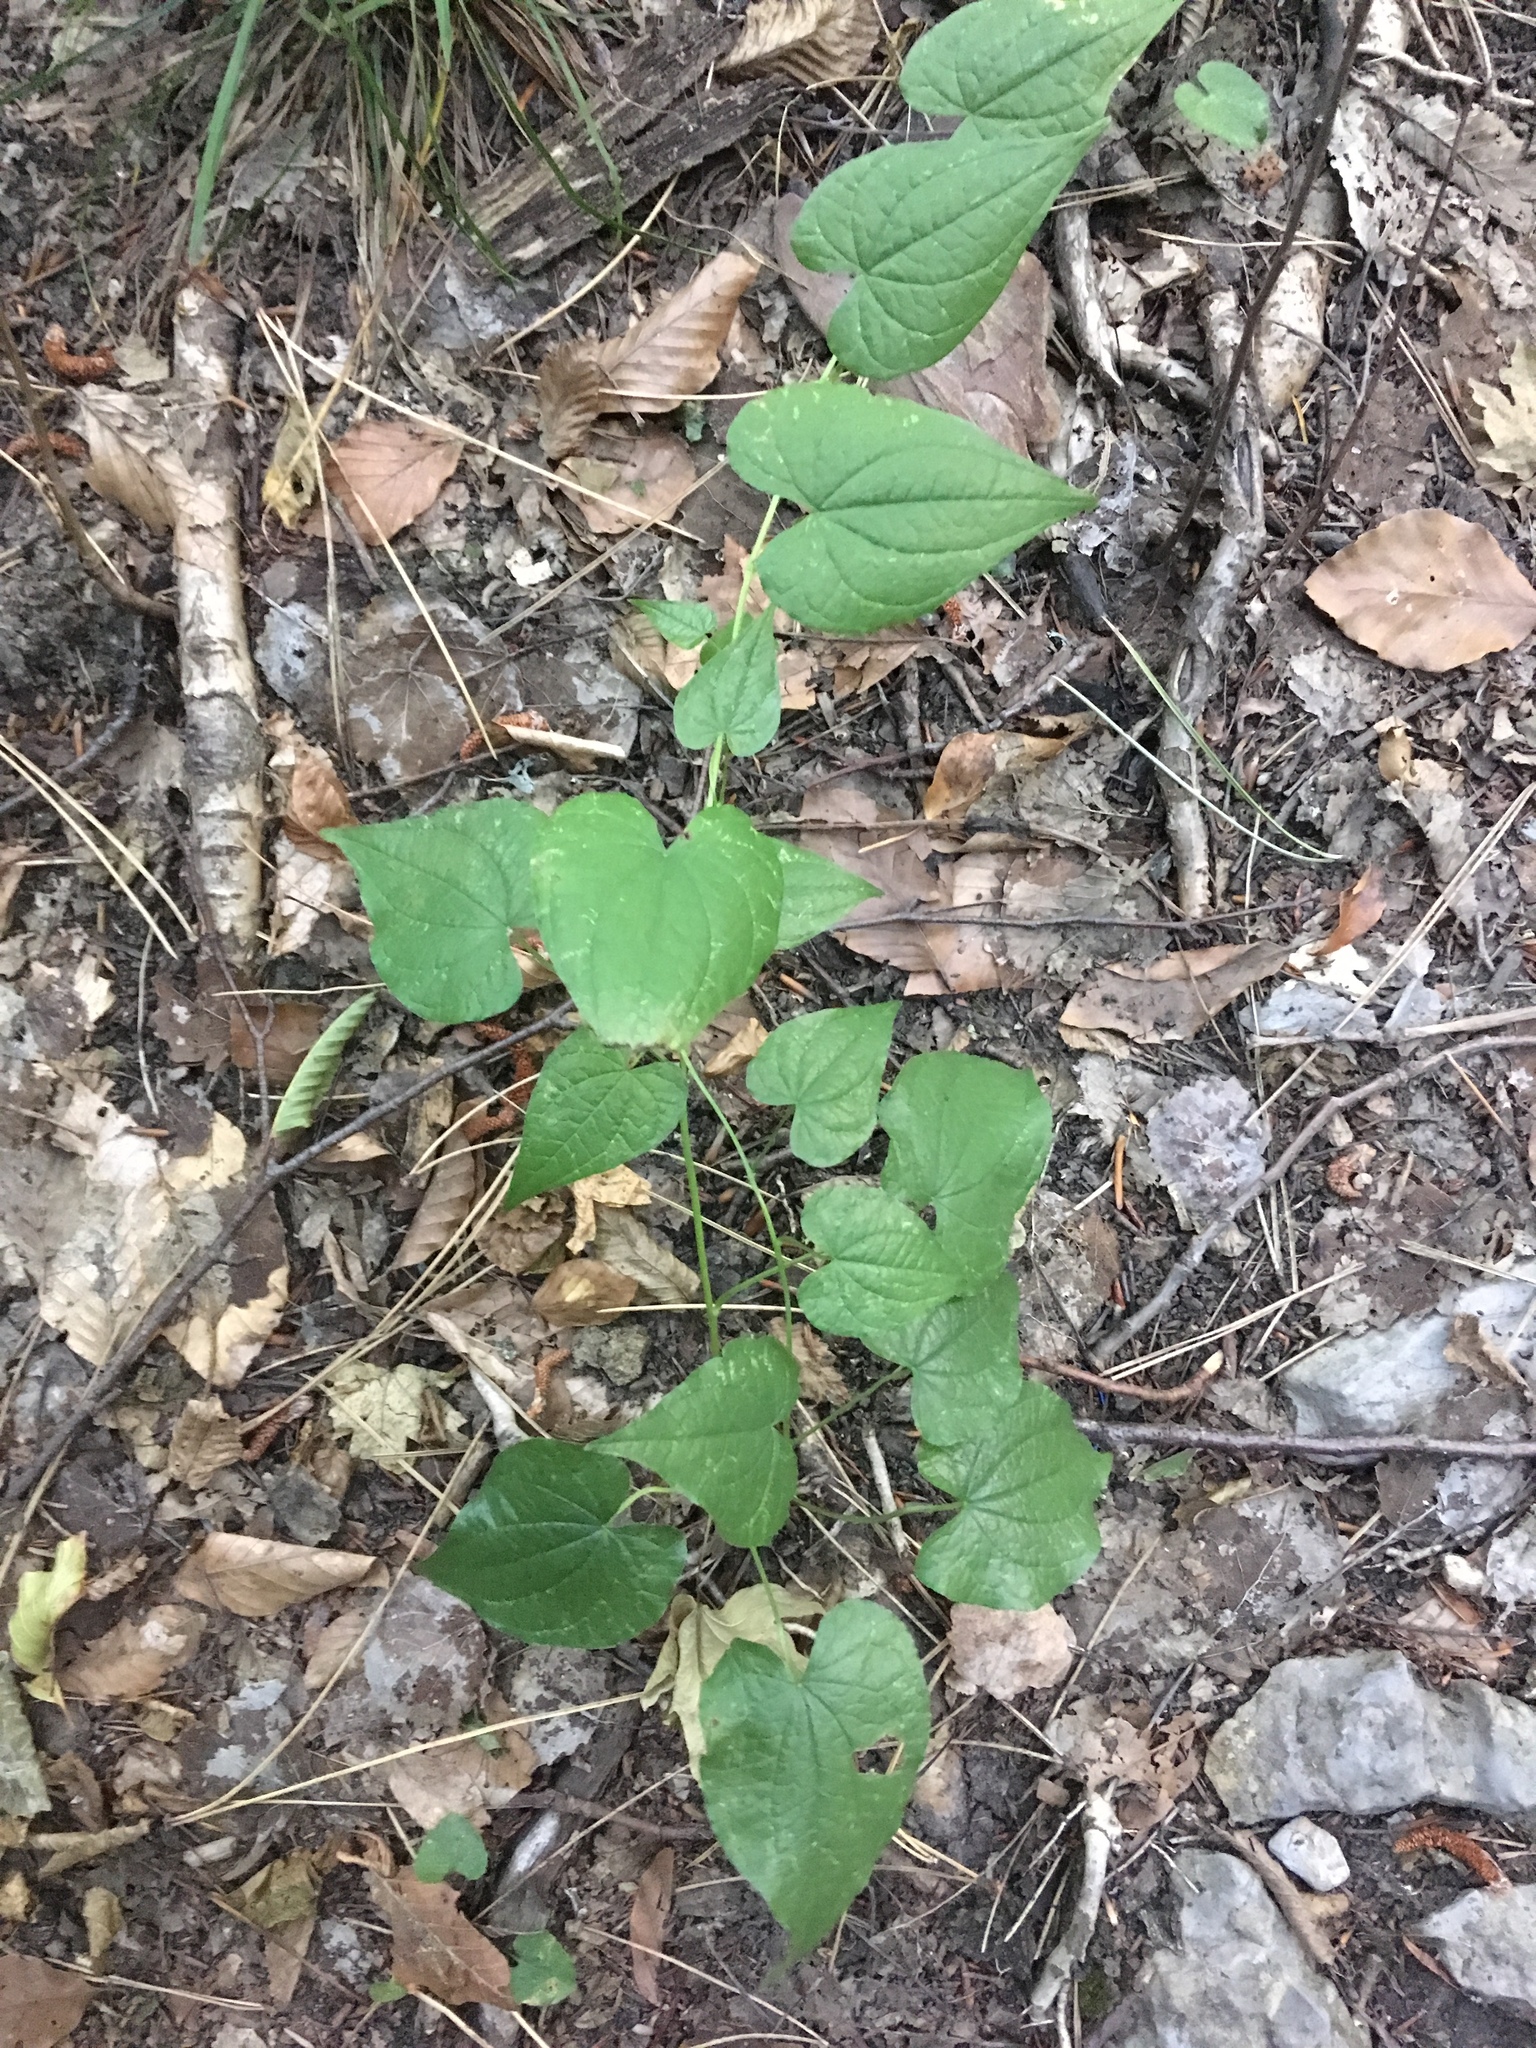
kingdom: Plantae
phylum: Tracheophyta
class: Liliopsida
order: Dioscoreales
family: Dioscoreaceae
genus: Dioscorea
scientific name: Dioscorea communis
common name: Black-bindweed
